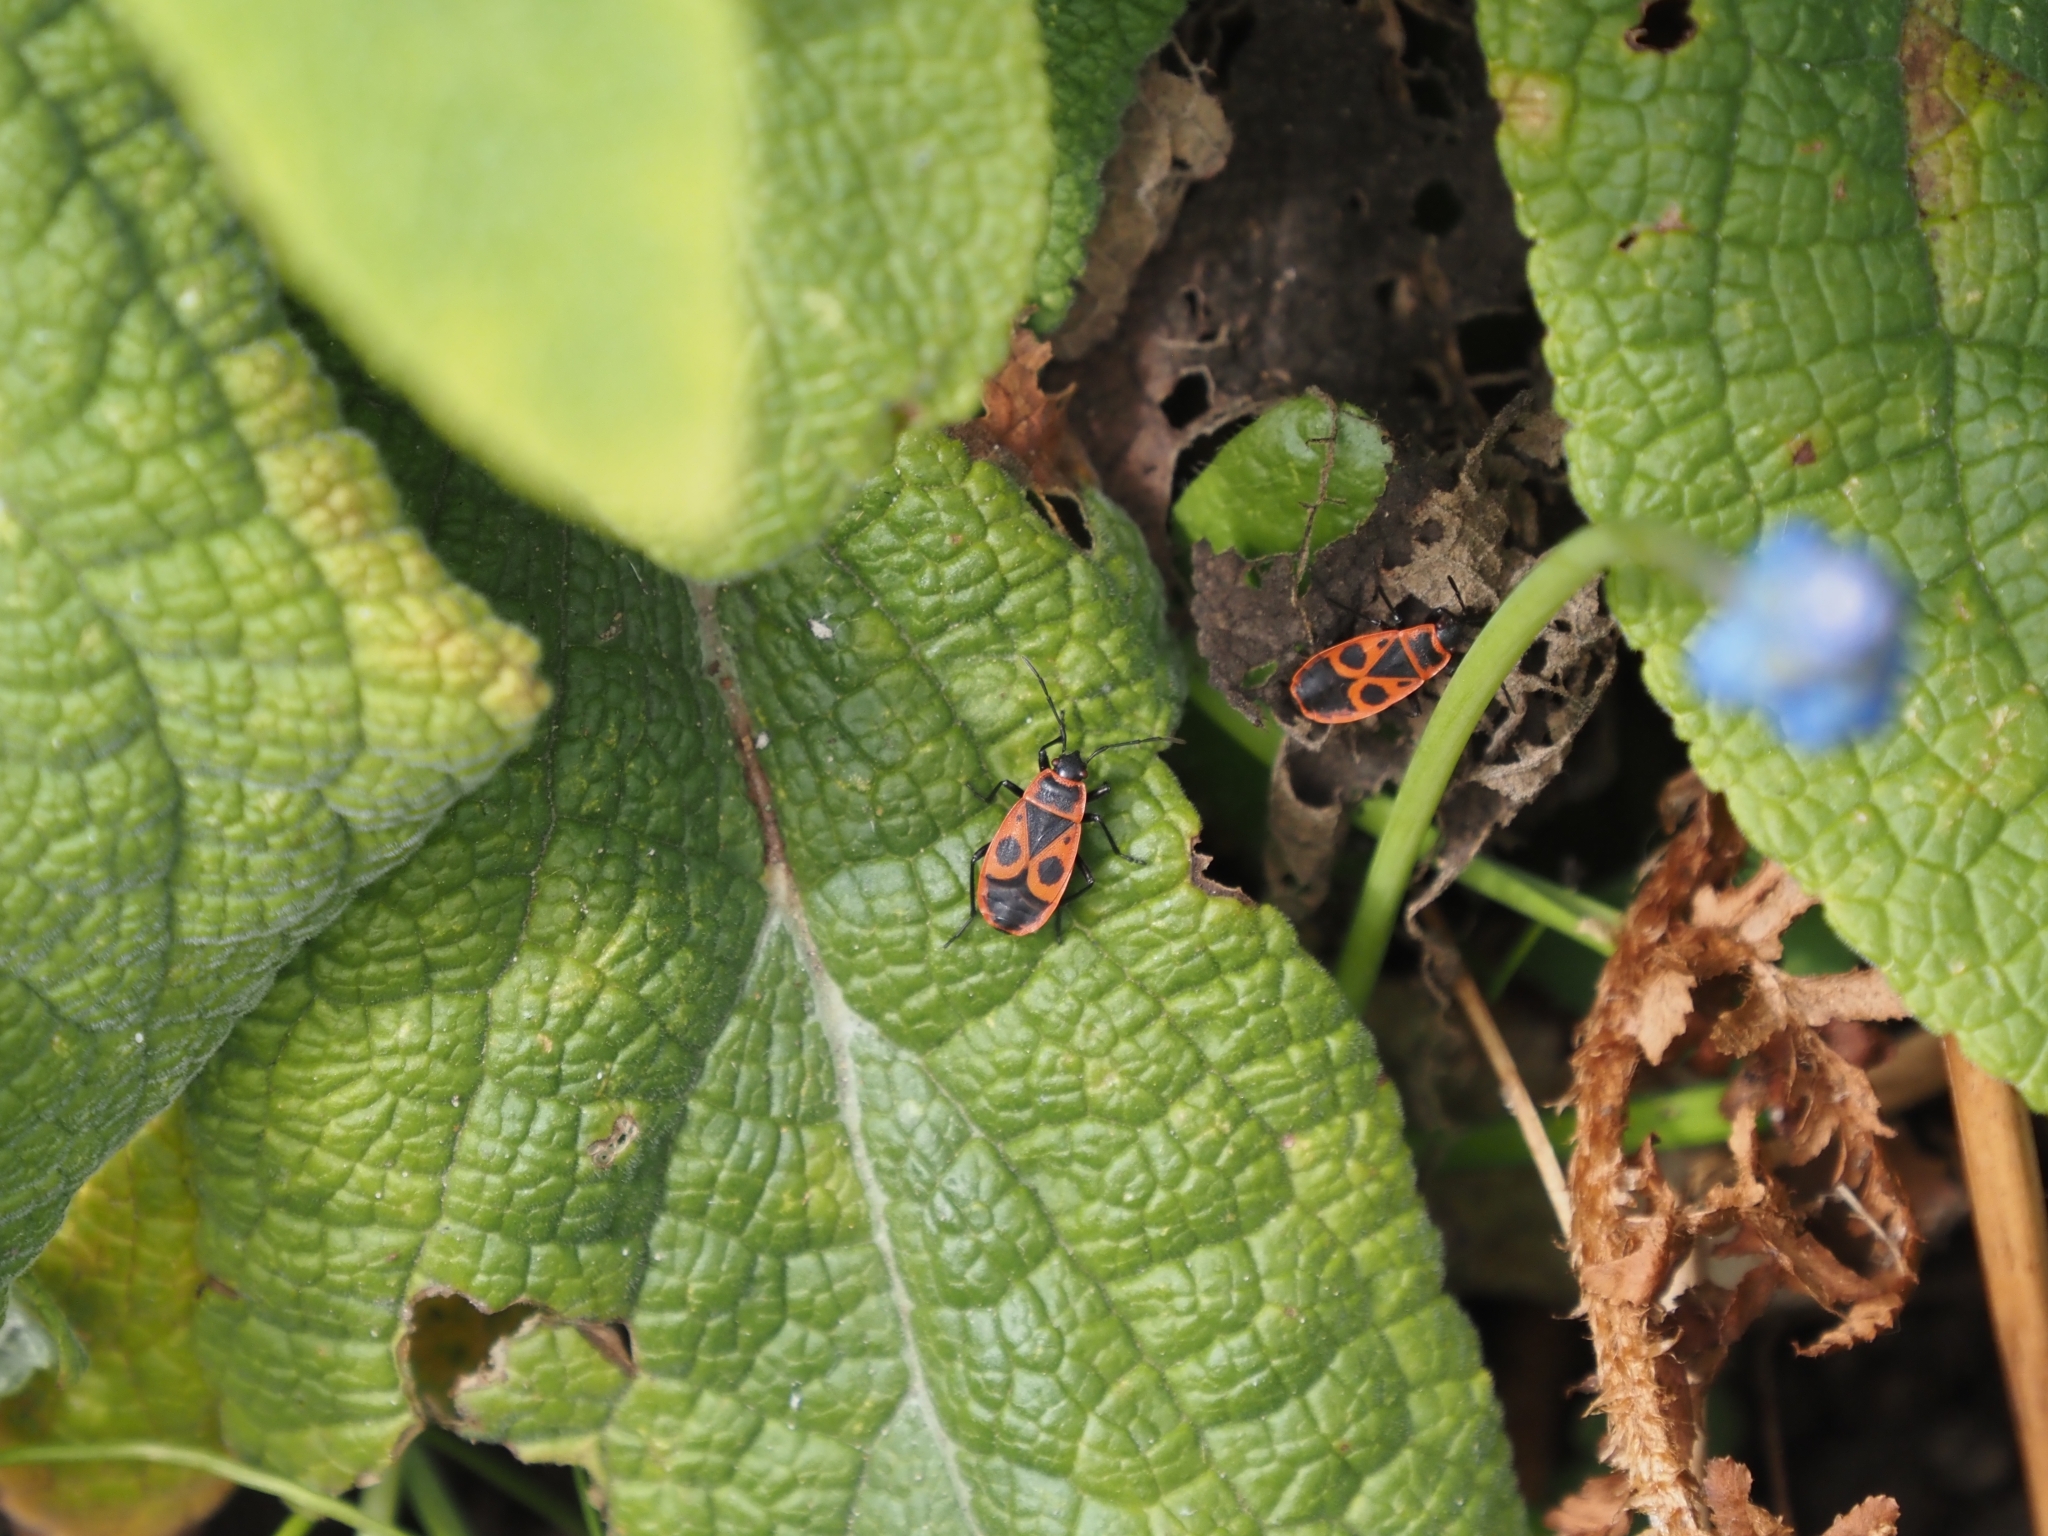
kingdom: Animalia
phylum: Arthropoda
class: Insecta
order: Hemiptera
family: Pyrrhocoridae
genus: Pyrrhocoris
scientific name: Pyrrhocoris apterus
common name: Firebug
